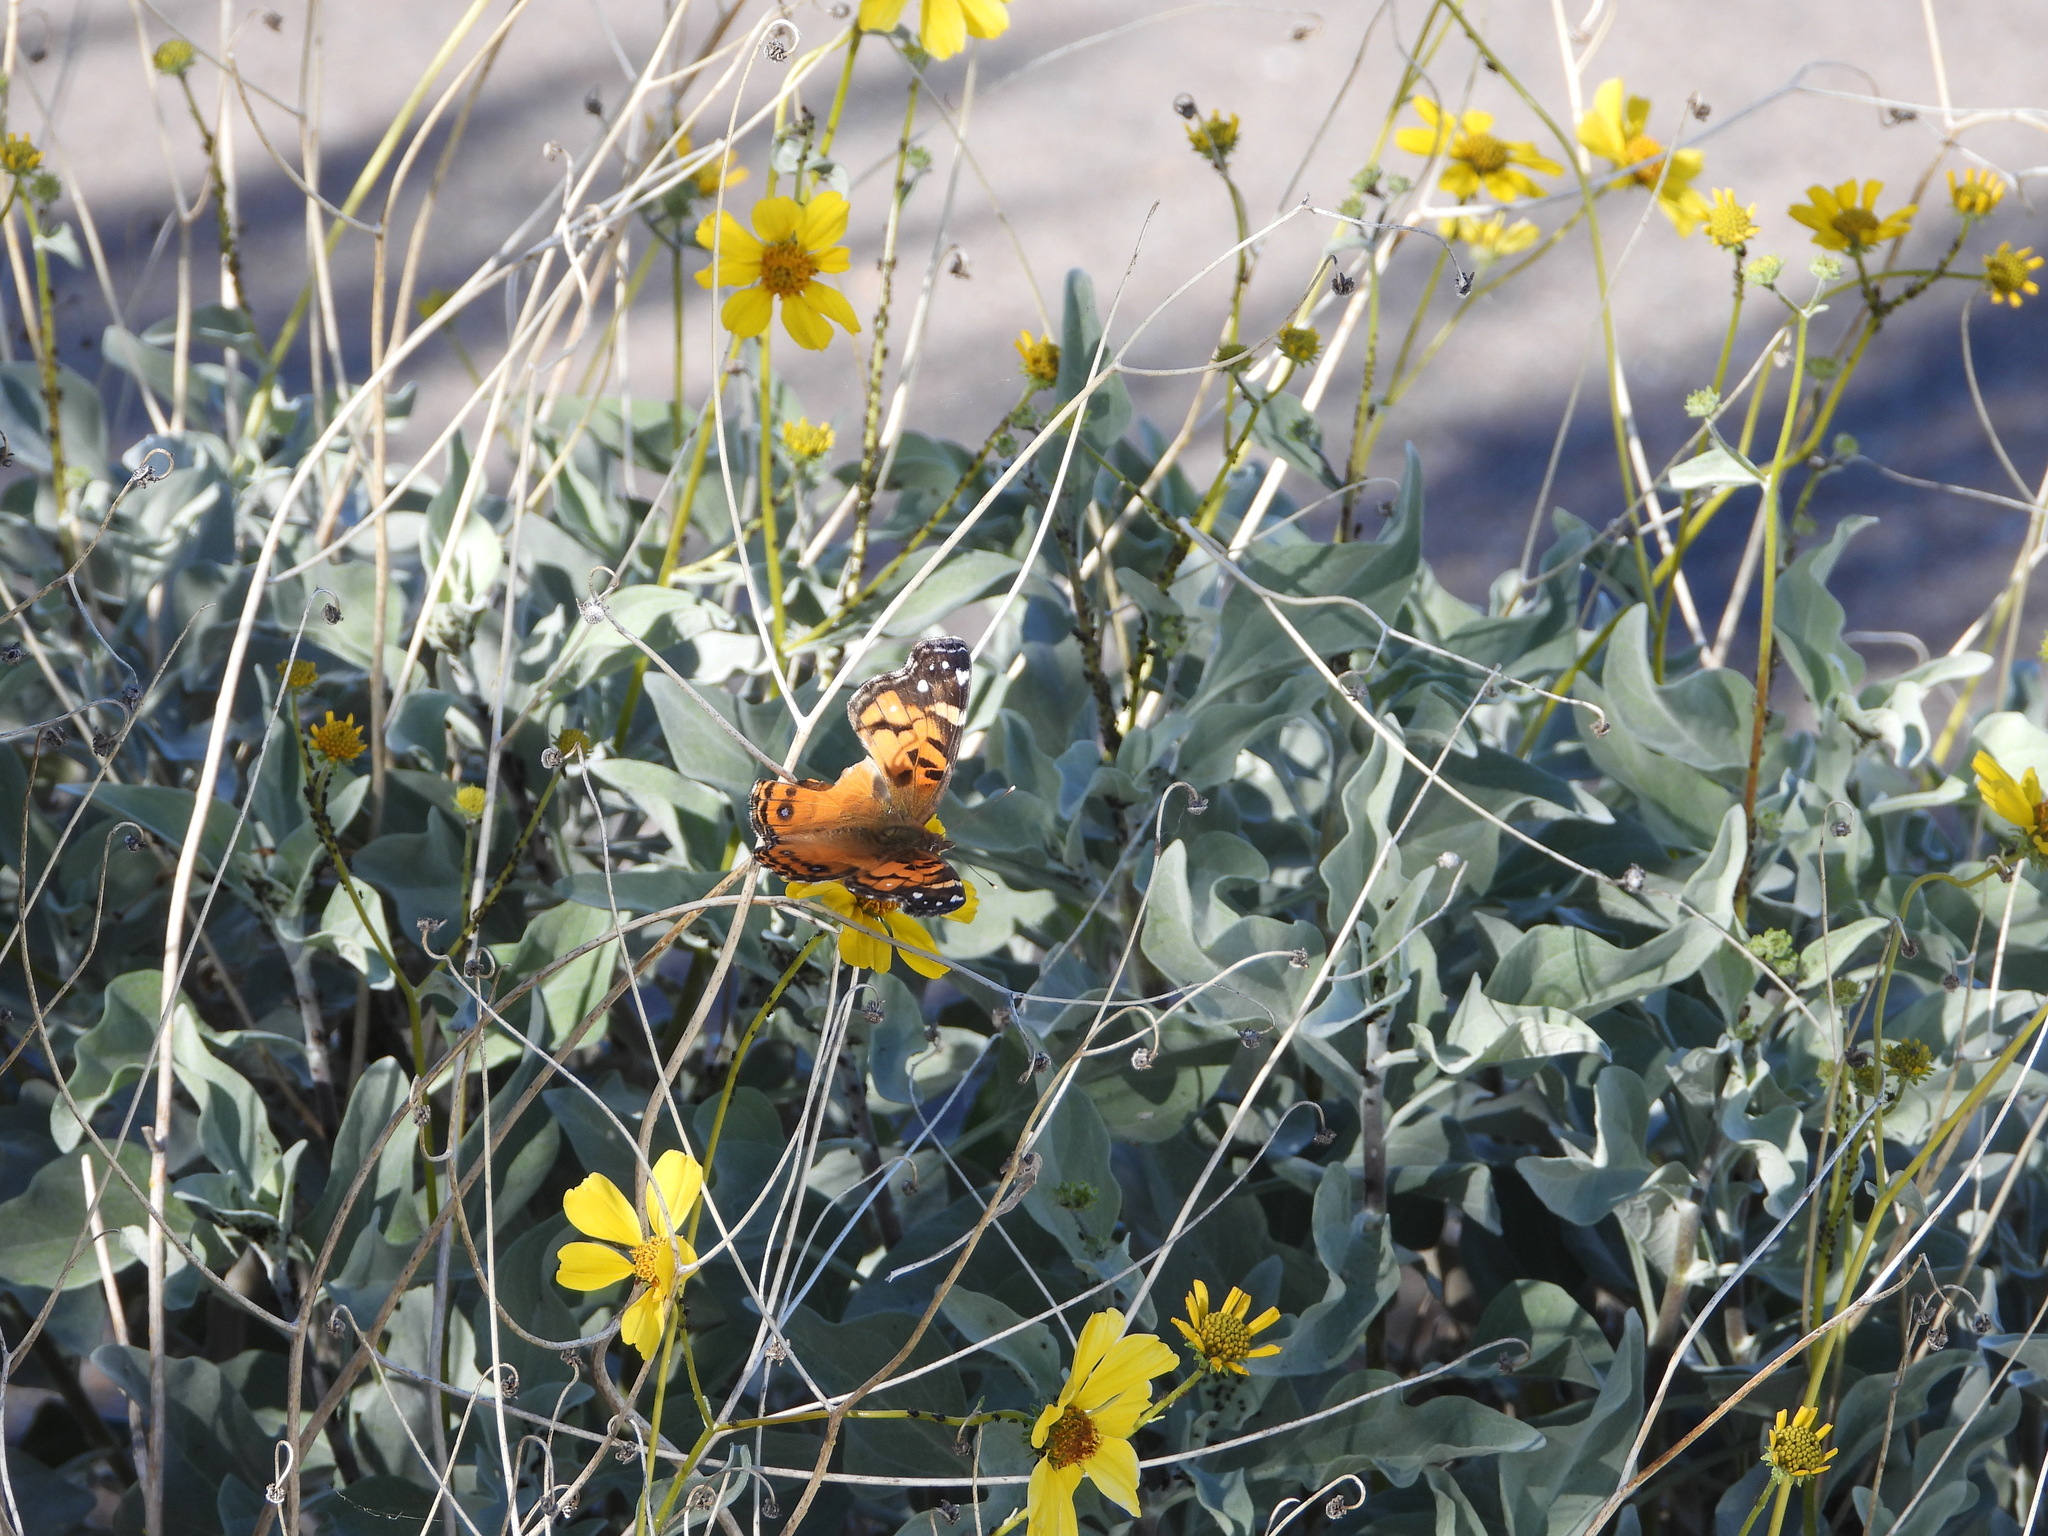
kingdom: Animalia
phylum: Arthropoda
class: Insecta
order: Lepidoptera
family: Nymphalidae
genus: Vanessa
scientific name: Vanessa virginiensis
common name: American lady
